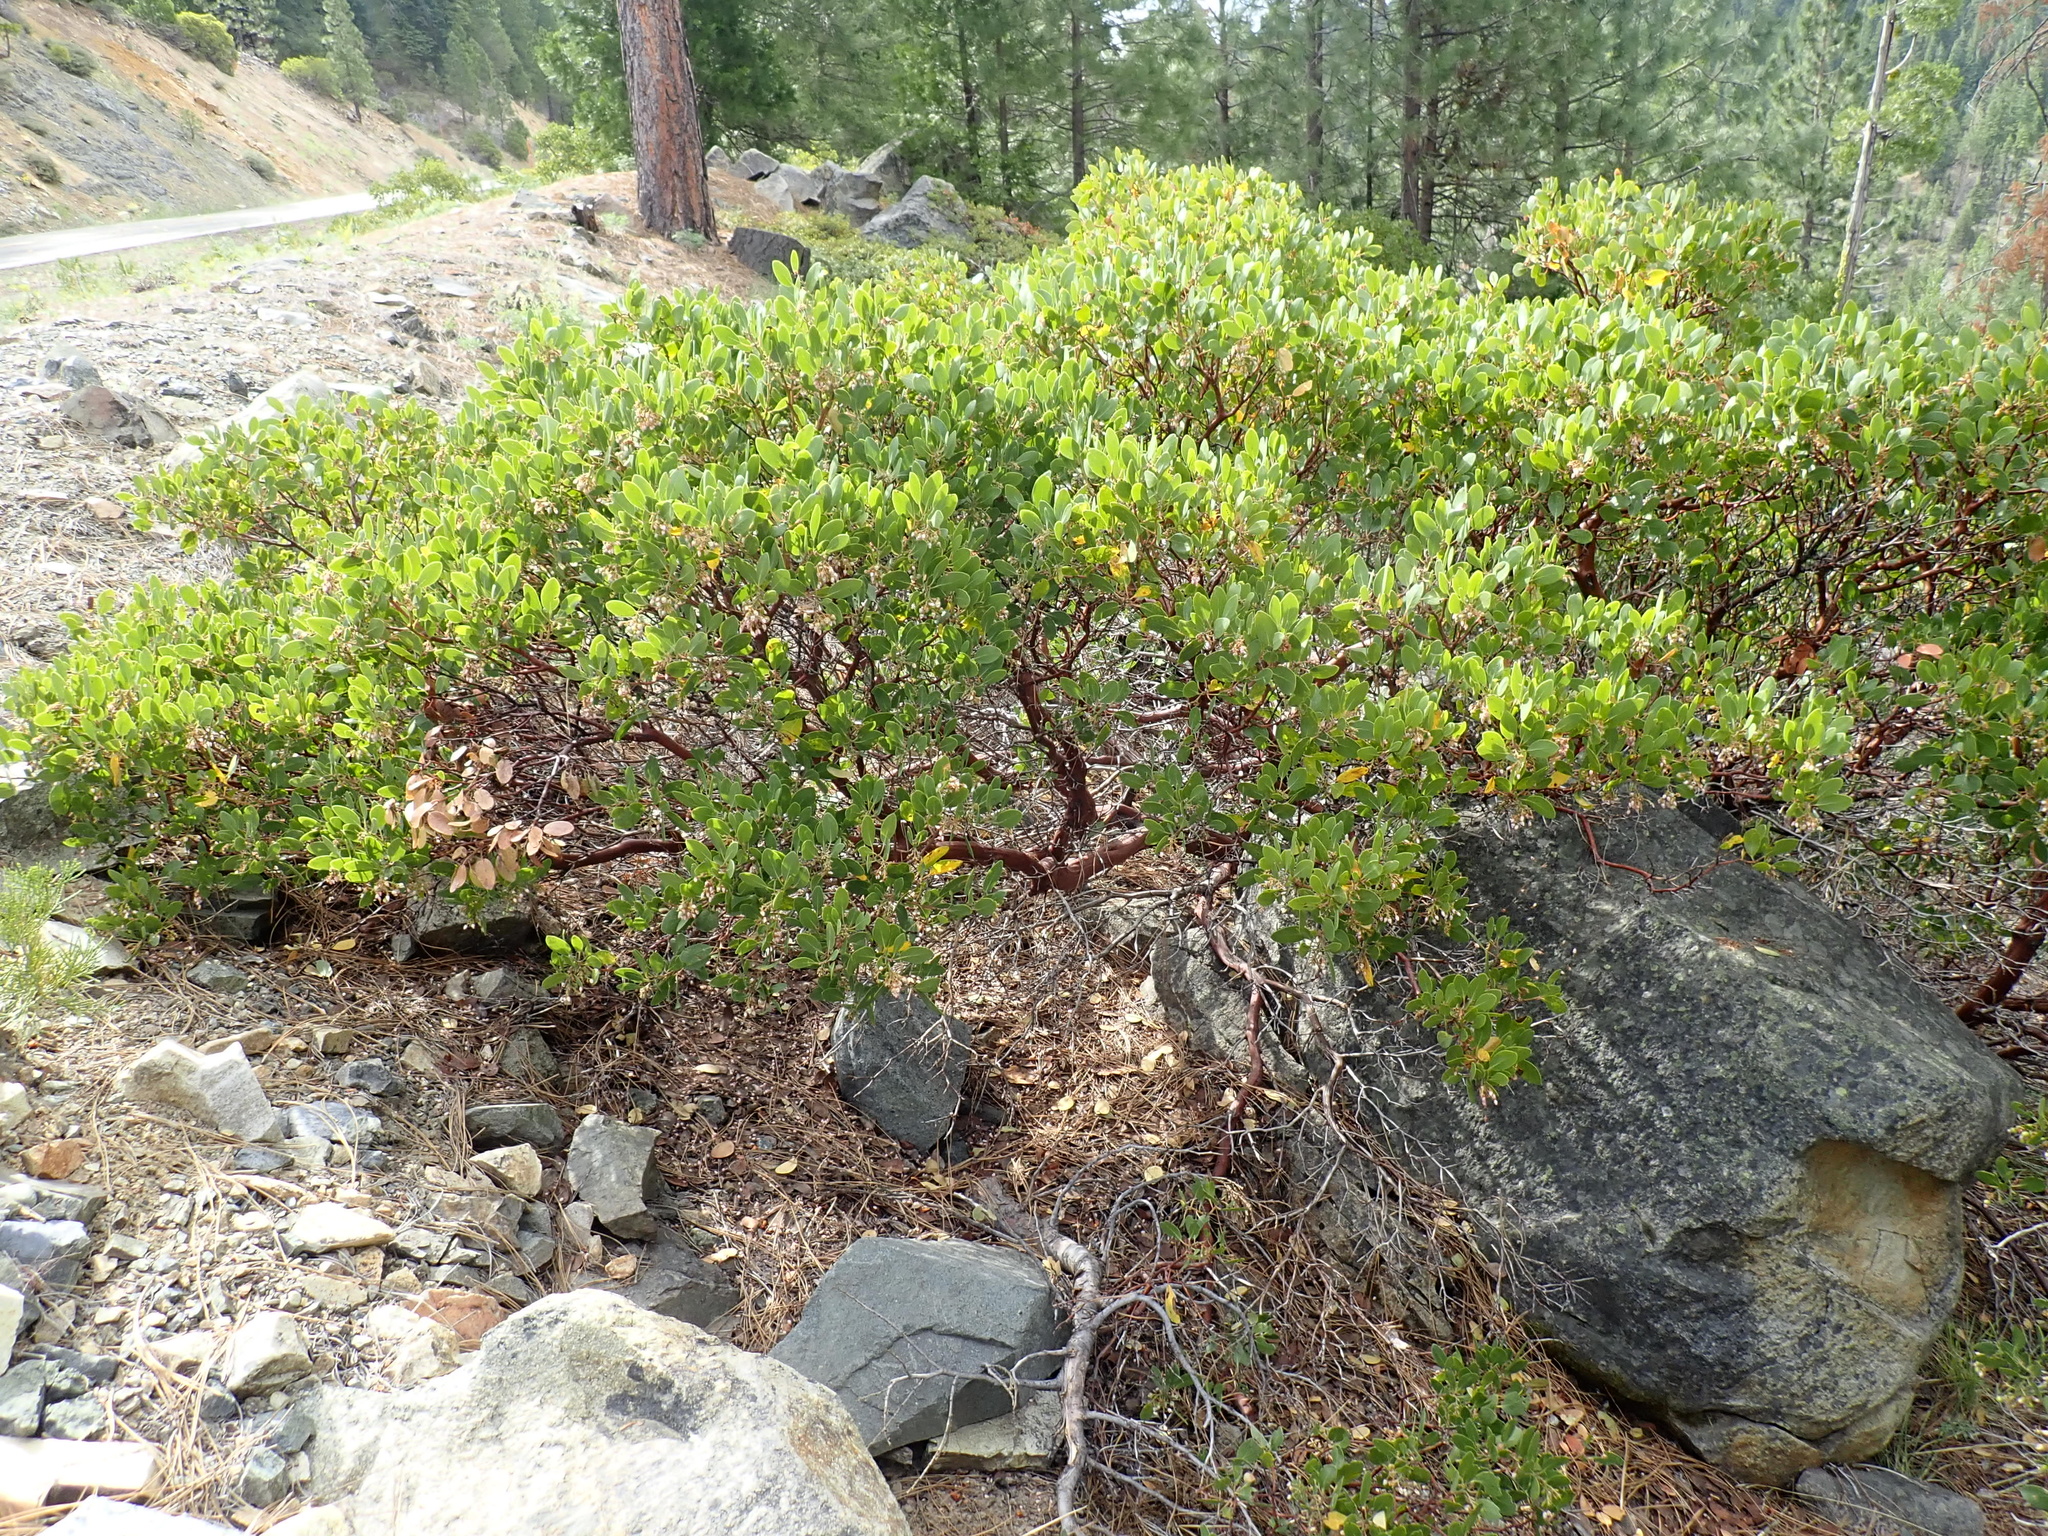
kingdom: Plantae
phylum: Tracheophyta
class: Magnoliopsida
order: Ericales
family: Ericaceae
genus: Arctostaphylos
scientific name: Arctostaphylos patula
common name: Green-leaf manzanita
